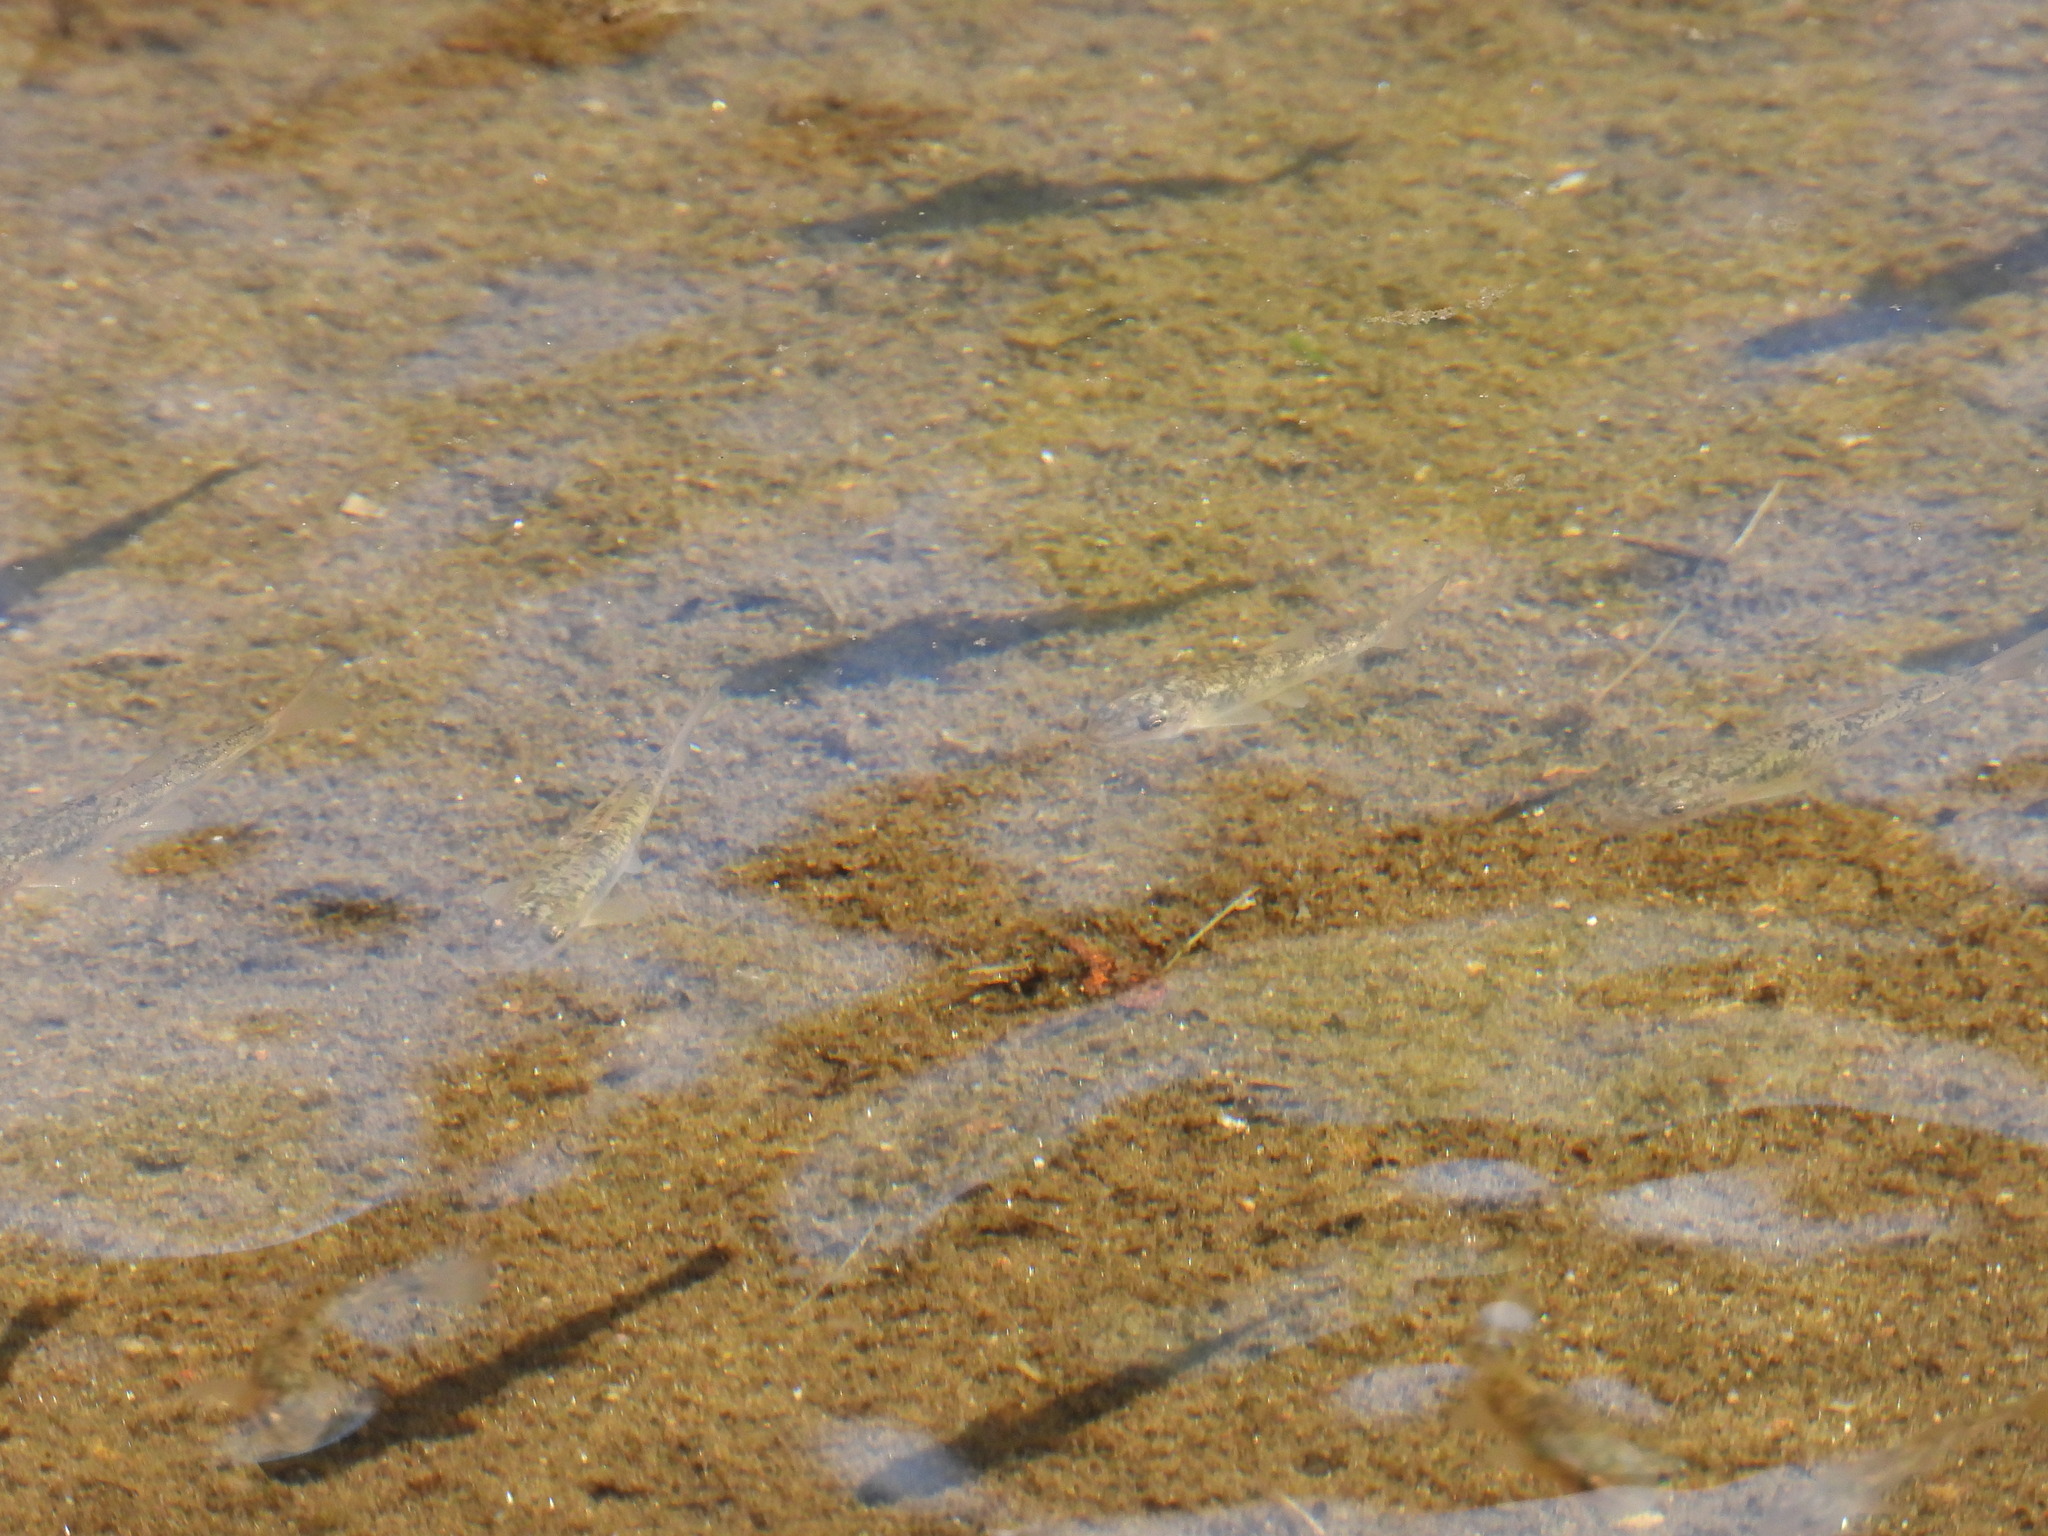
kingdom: Animalia
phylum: Chordata
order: Cypriniformes
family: Catostomidae
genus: Catostomus
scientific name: Catostomus catostomus
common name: Longnose sucker
